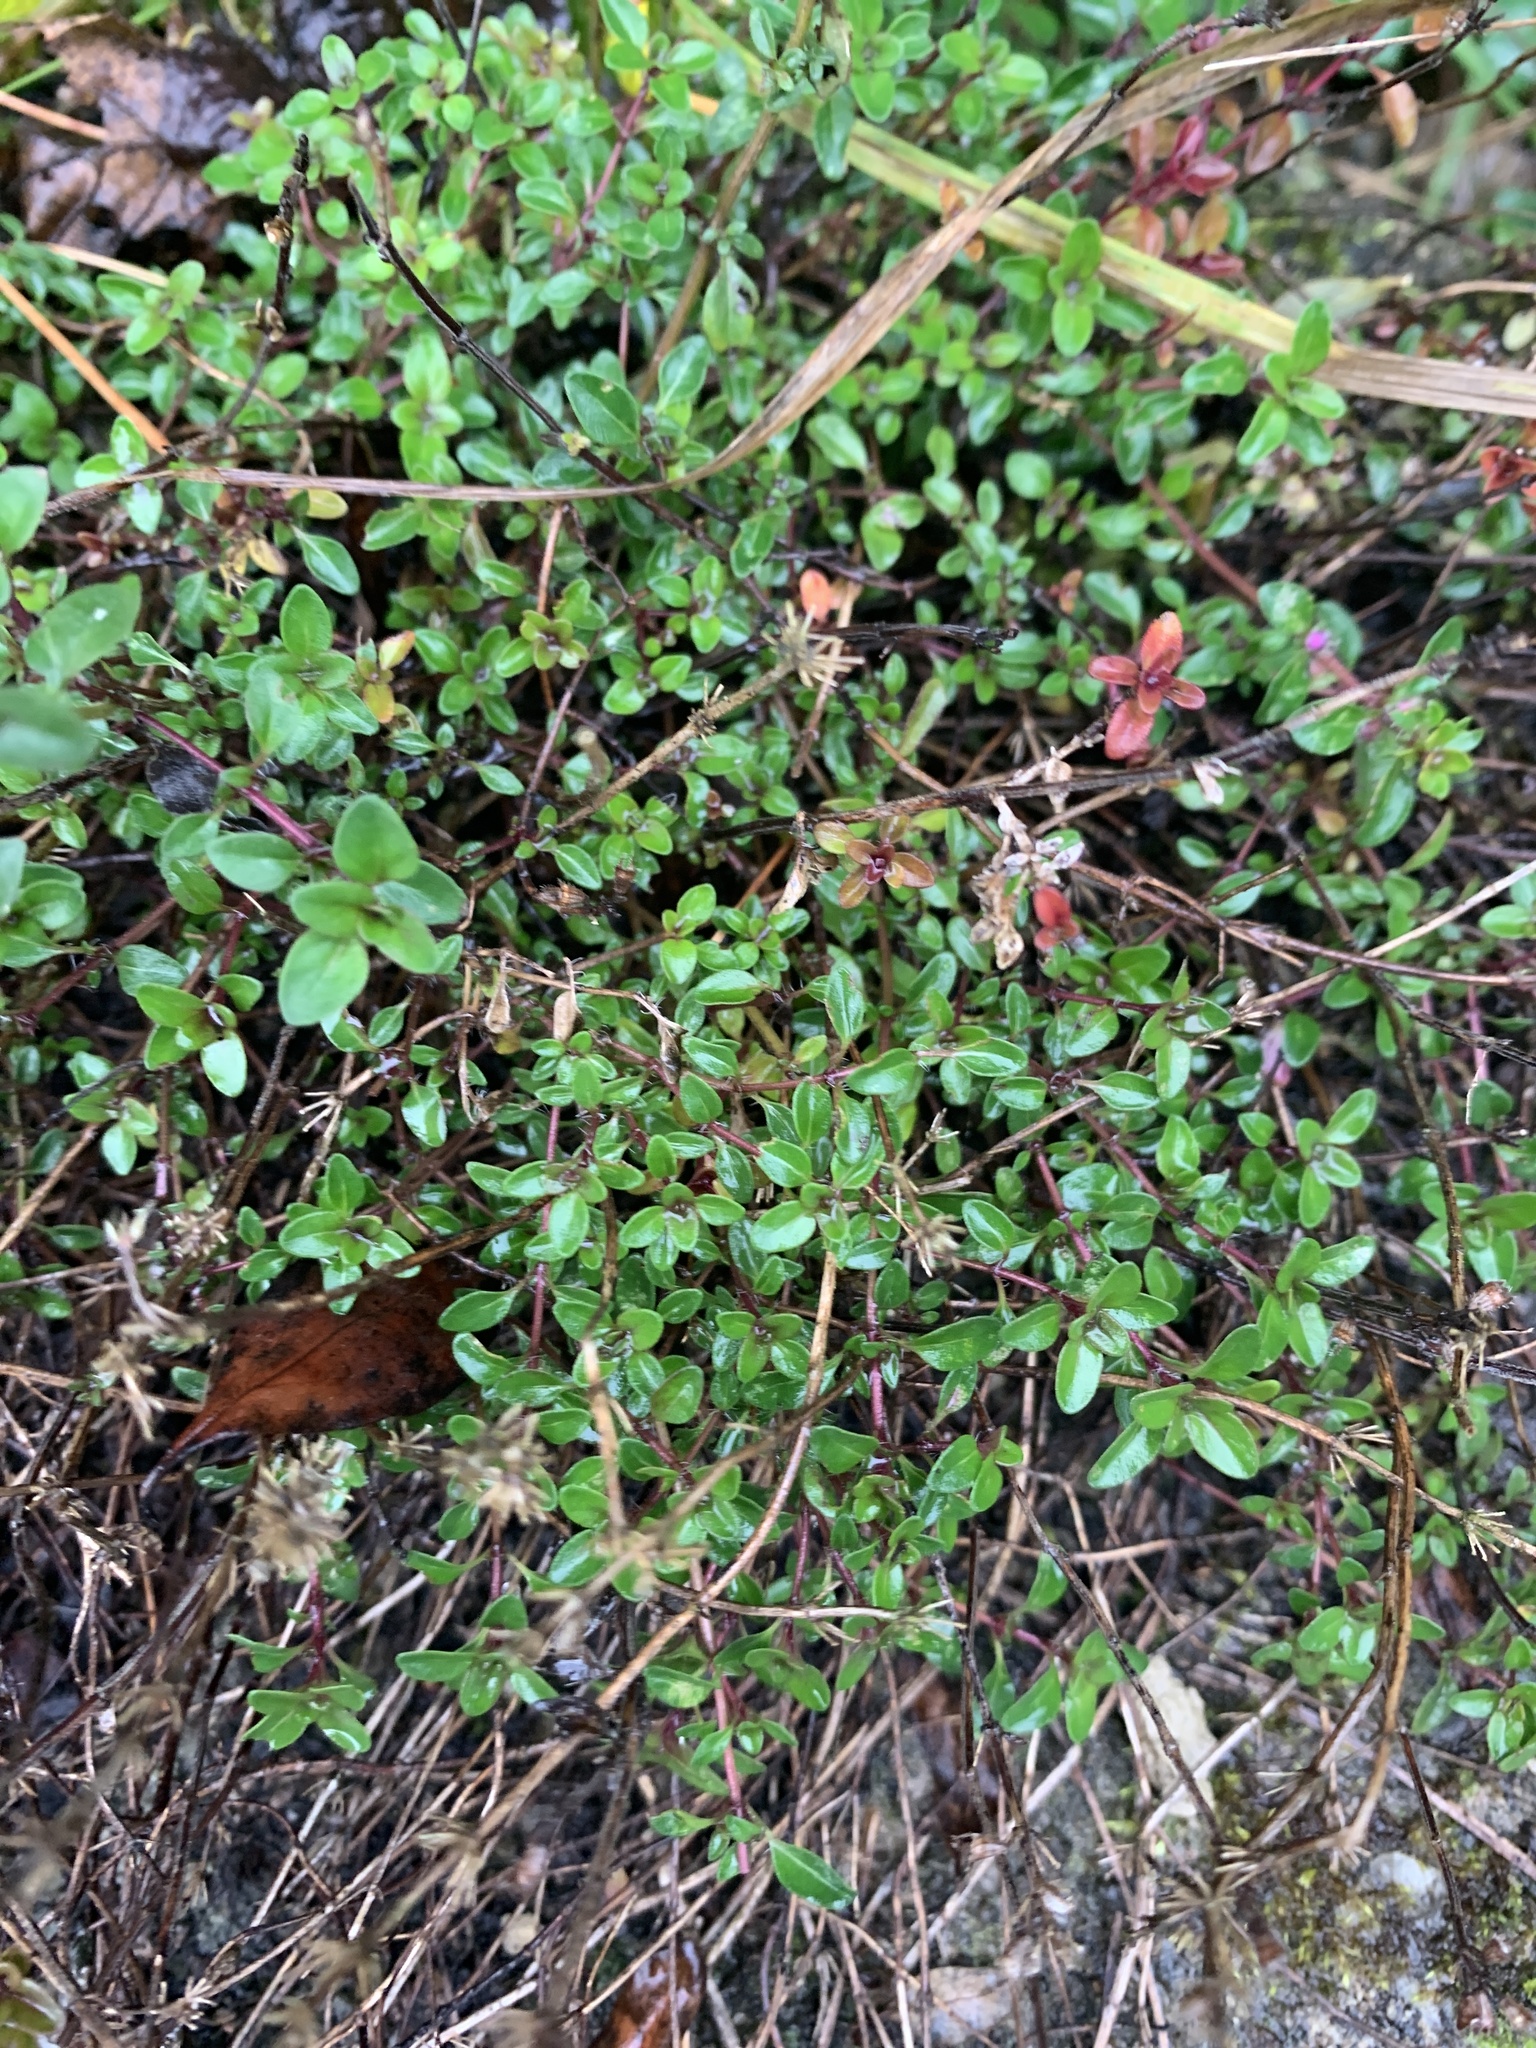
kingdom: Plantae
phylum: Tracheophyta
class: Magnoliopsida
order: Lamiales
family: Lamiaceae
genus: Thymus
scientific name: Thymus
